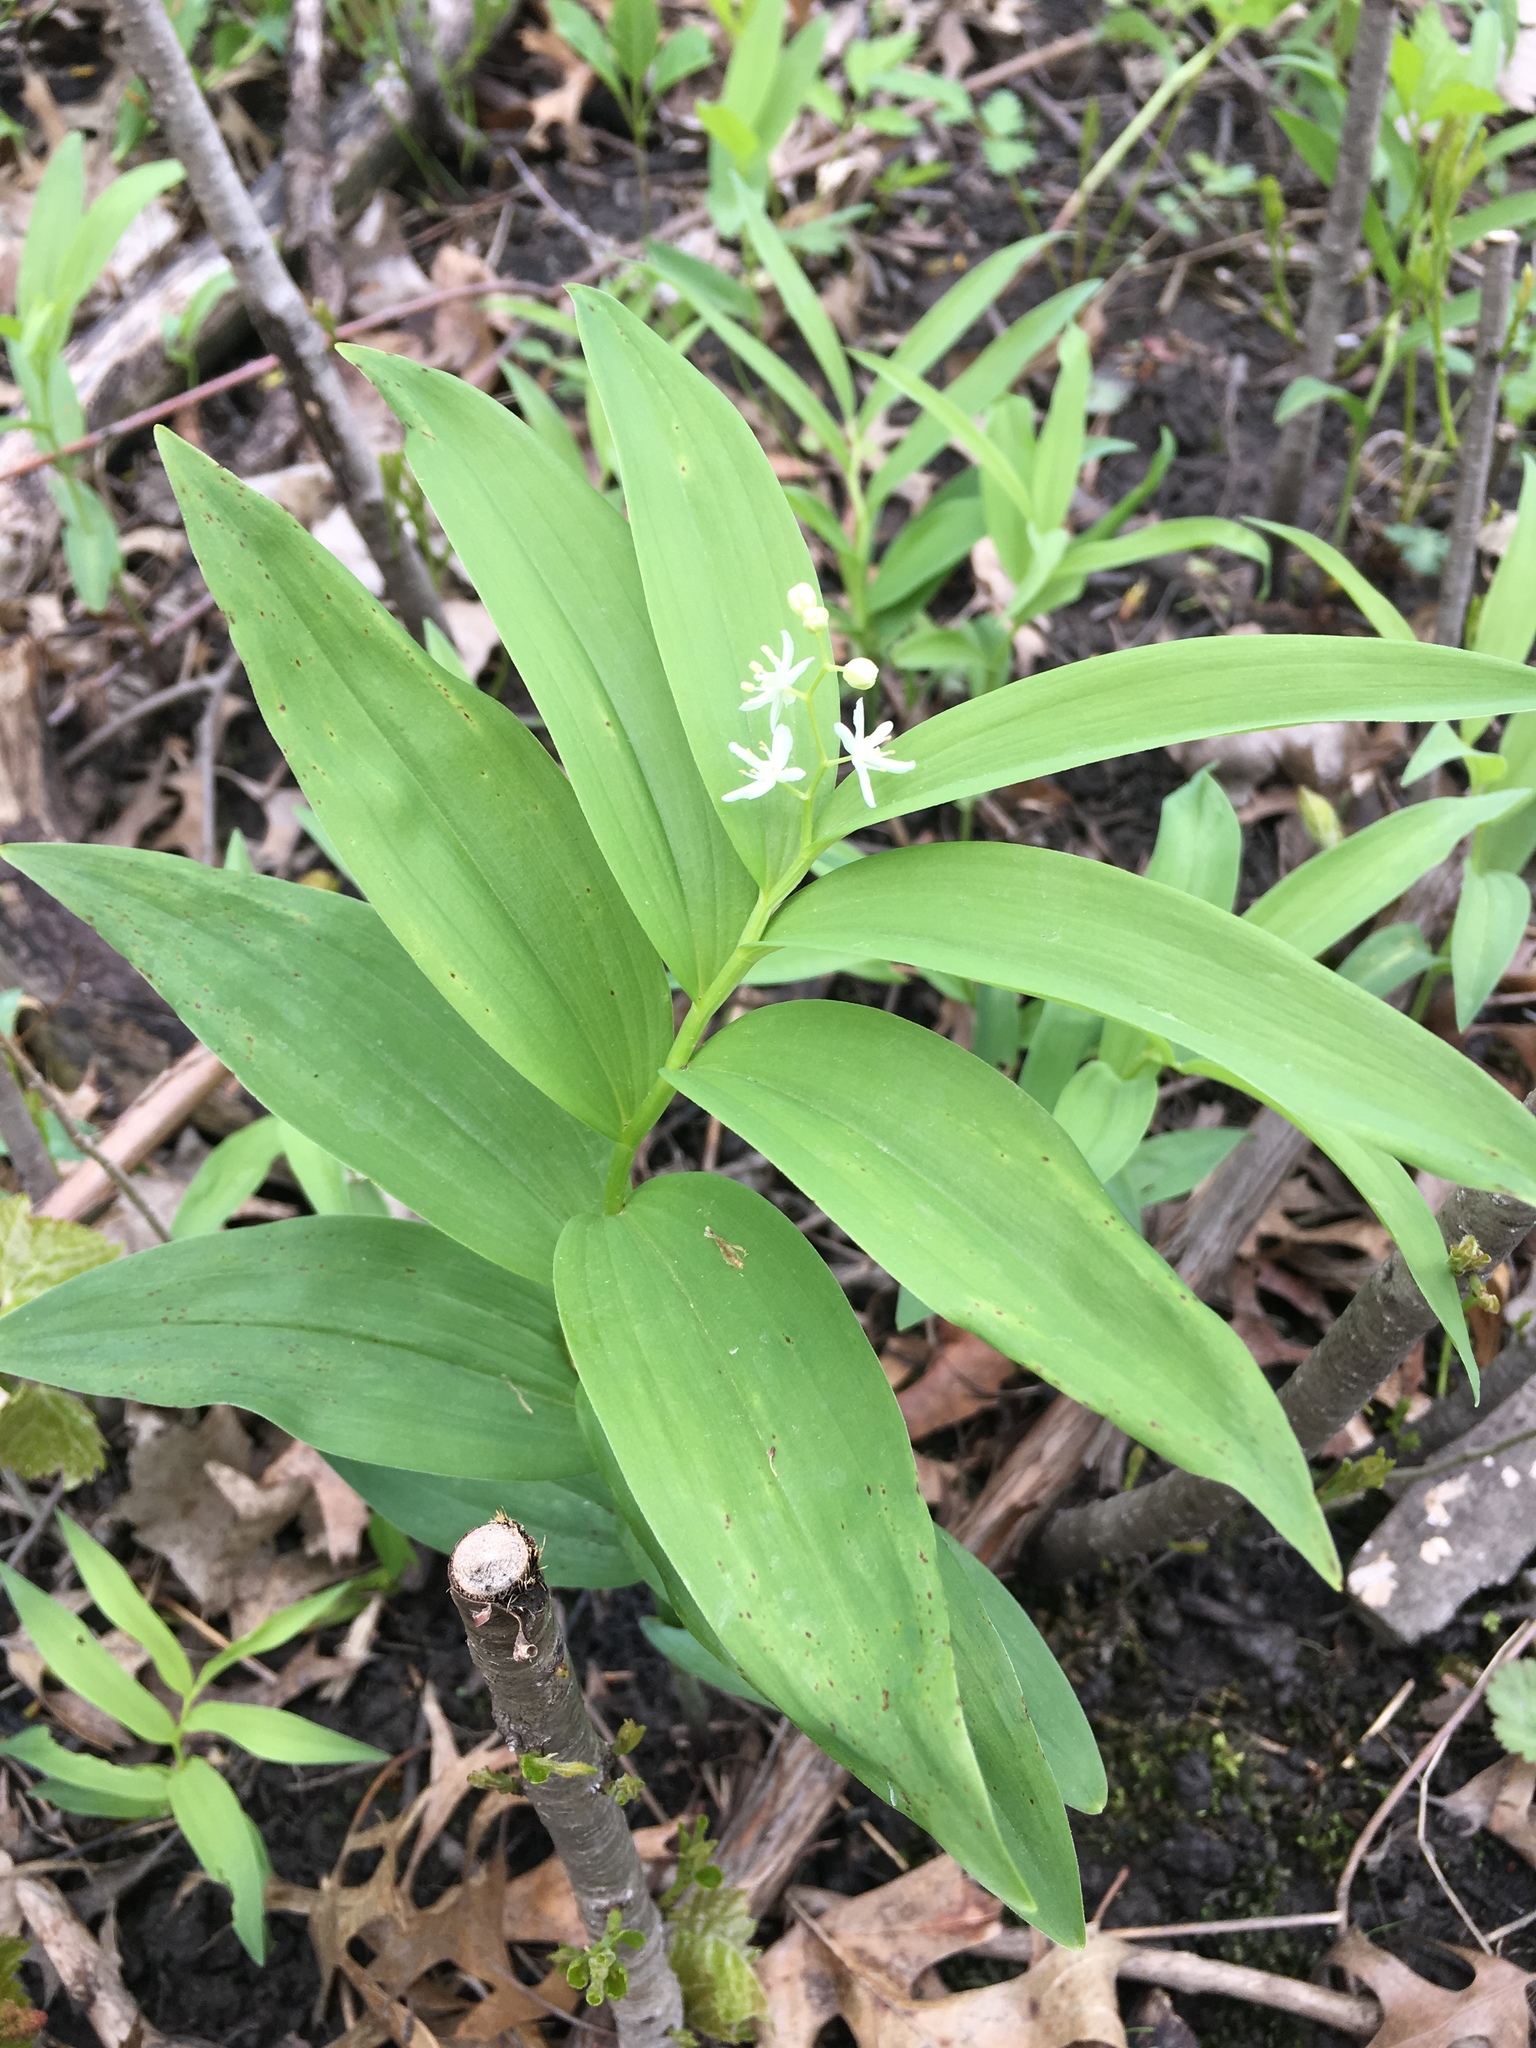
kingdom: Plantae
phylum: Tracheophyta
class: Liliopsida
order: Asparagales
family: Asparagaceae
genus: Maianthemum
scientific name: Maianthemum stellatum
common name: Little false solomon's seal
